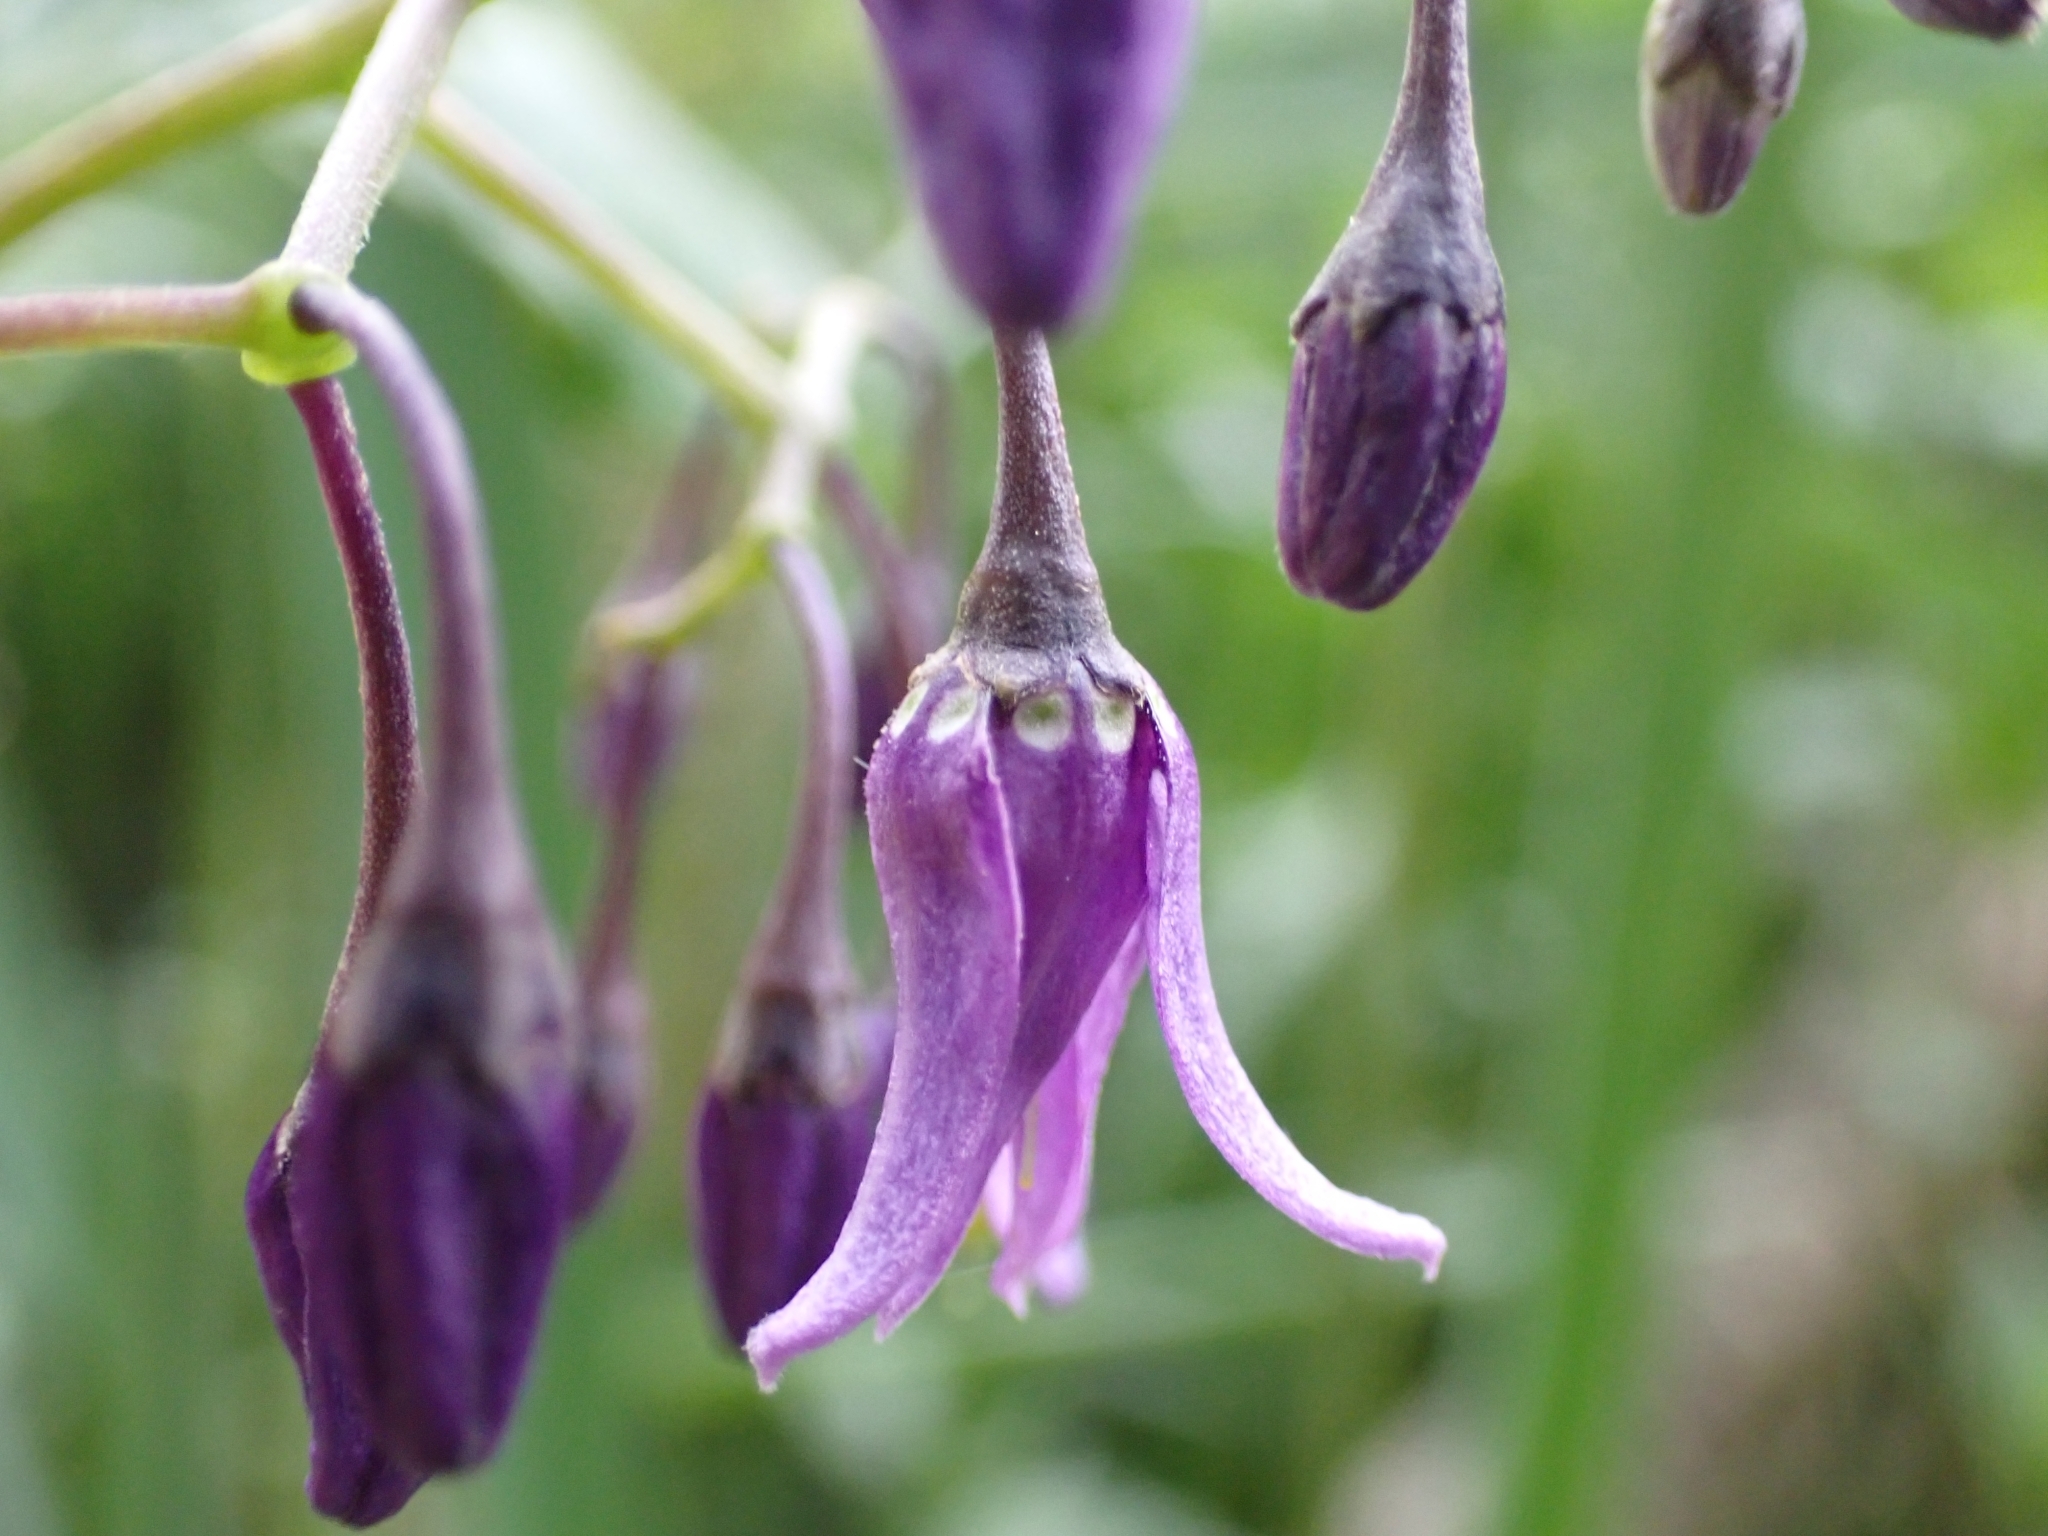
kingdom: Plantae
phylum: Tracheophyta
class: Magnoliopsida
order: Solanales
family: Solanaceae
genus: Solanum
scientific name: Solanum dulcamara
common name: Climbing nightshade
